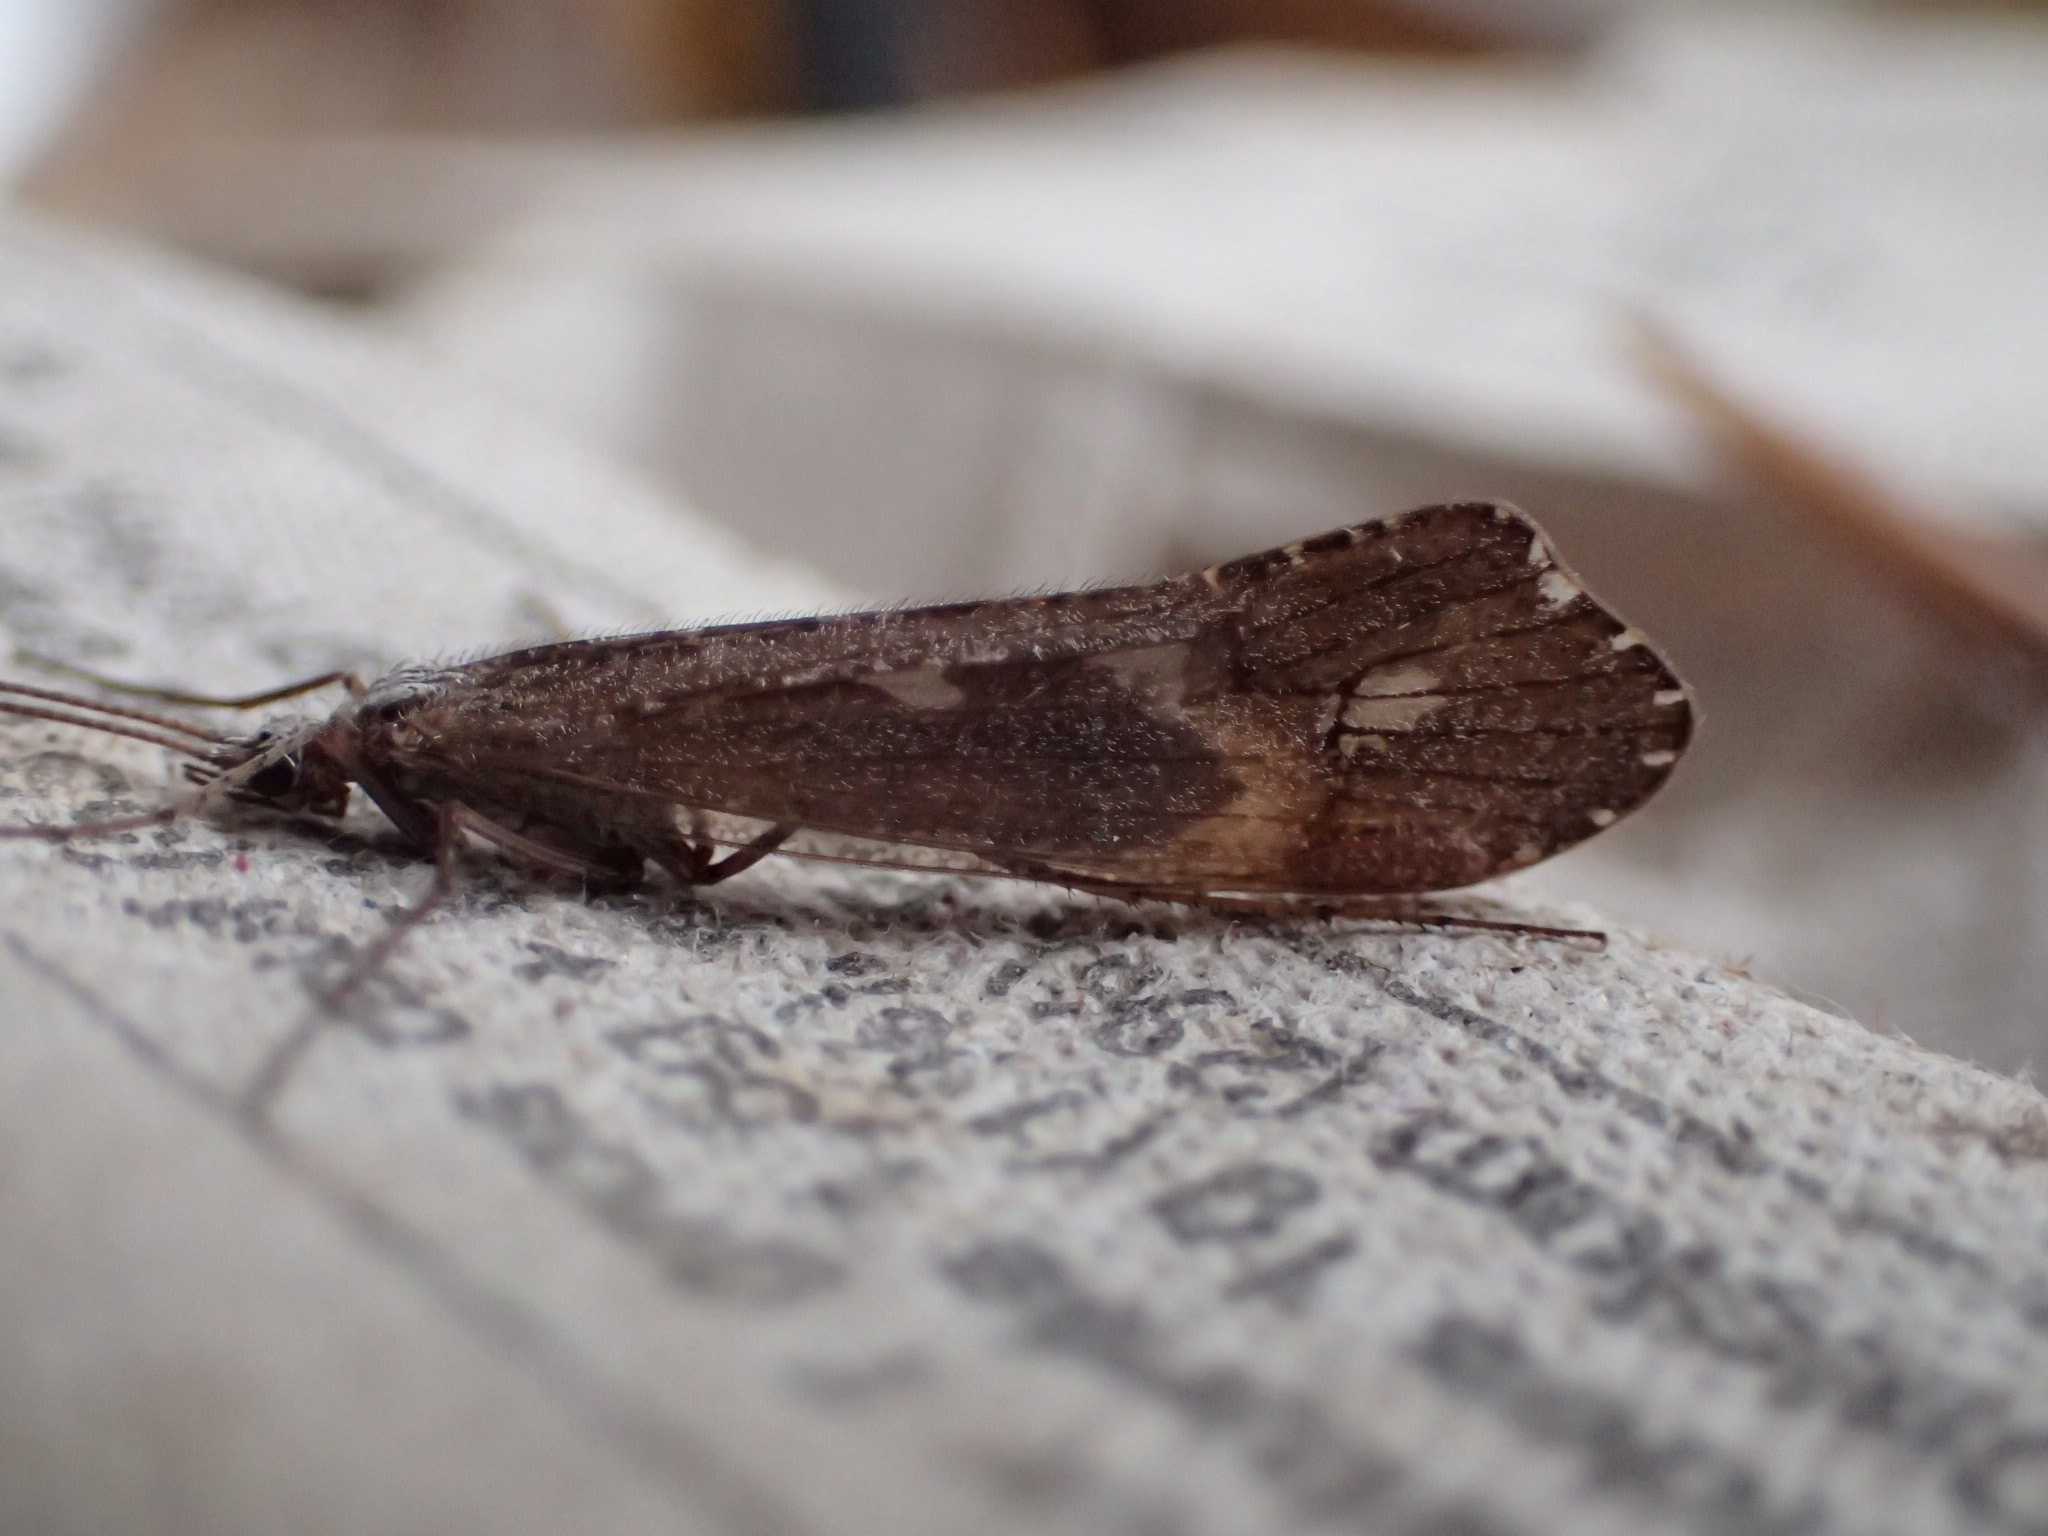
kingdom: Animalia
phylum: Arthropoda
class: Insecta
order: Trichoptera
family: Limnephilidae
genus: Glyphopsyche
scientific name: Glyphopsyche irrorata
